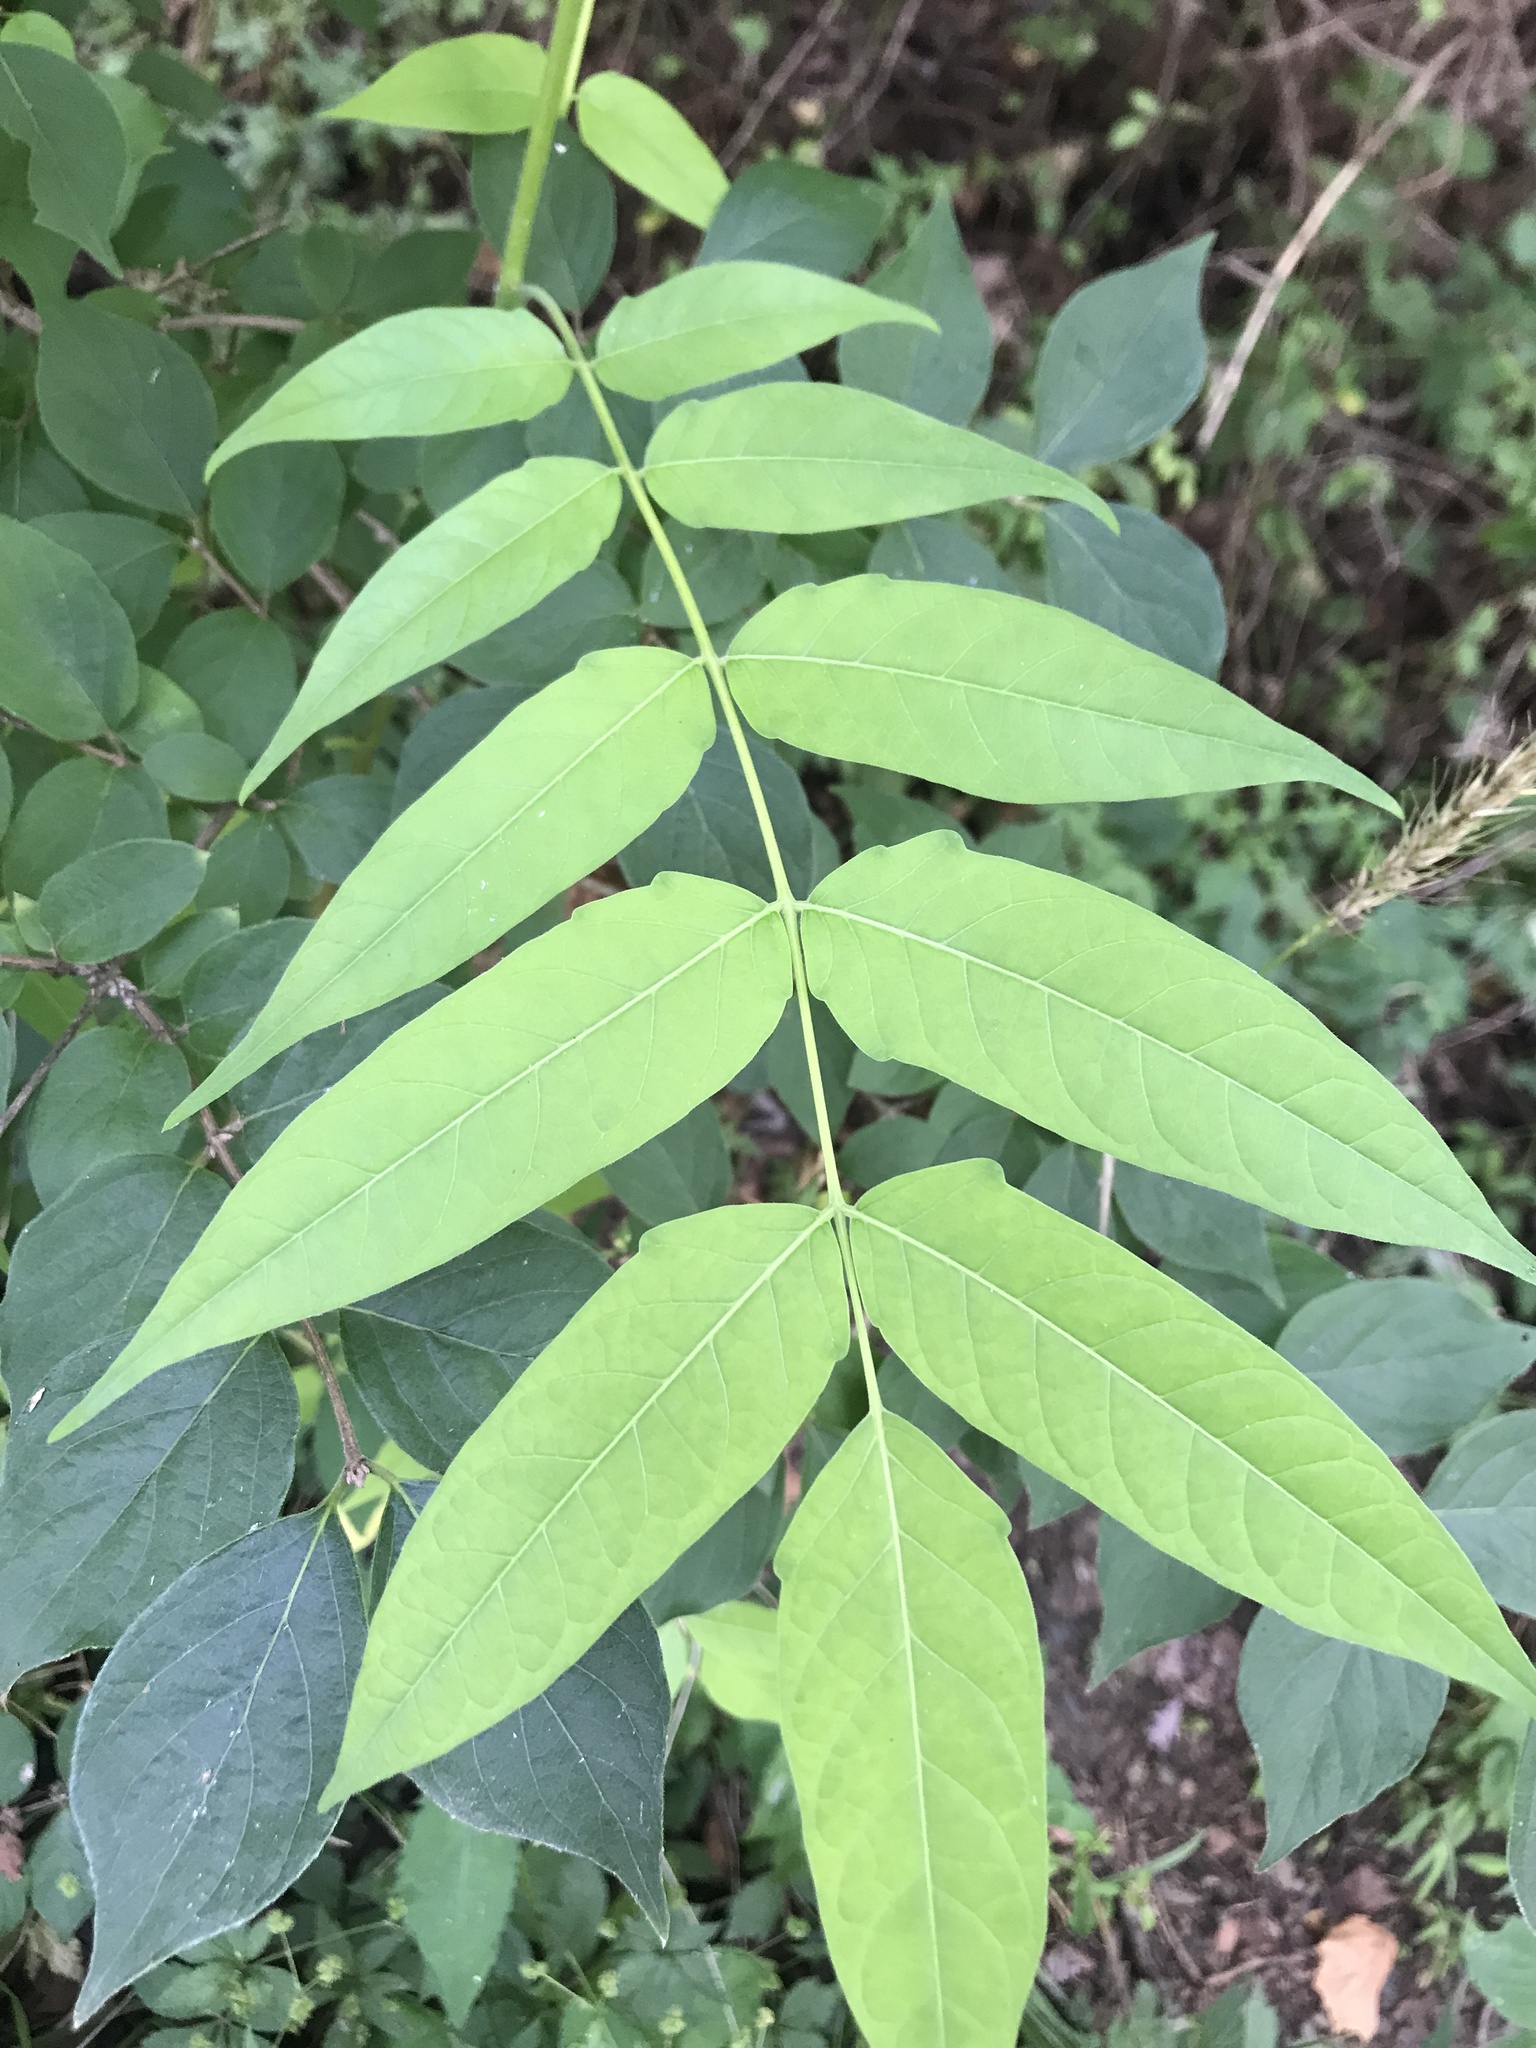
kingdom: Plantae
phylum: Tracheophyta
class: Magnoliopsida
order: Sapindales
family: Simaroubaceae
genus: Ailanthus
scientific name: Ailanthus altissima
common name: Tree-of-heaven
